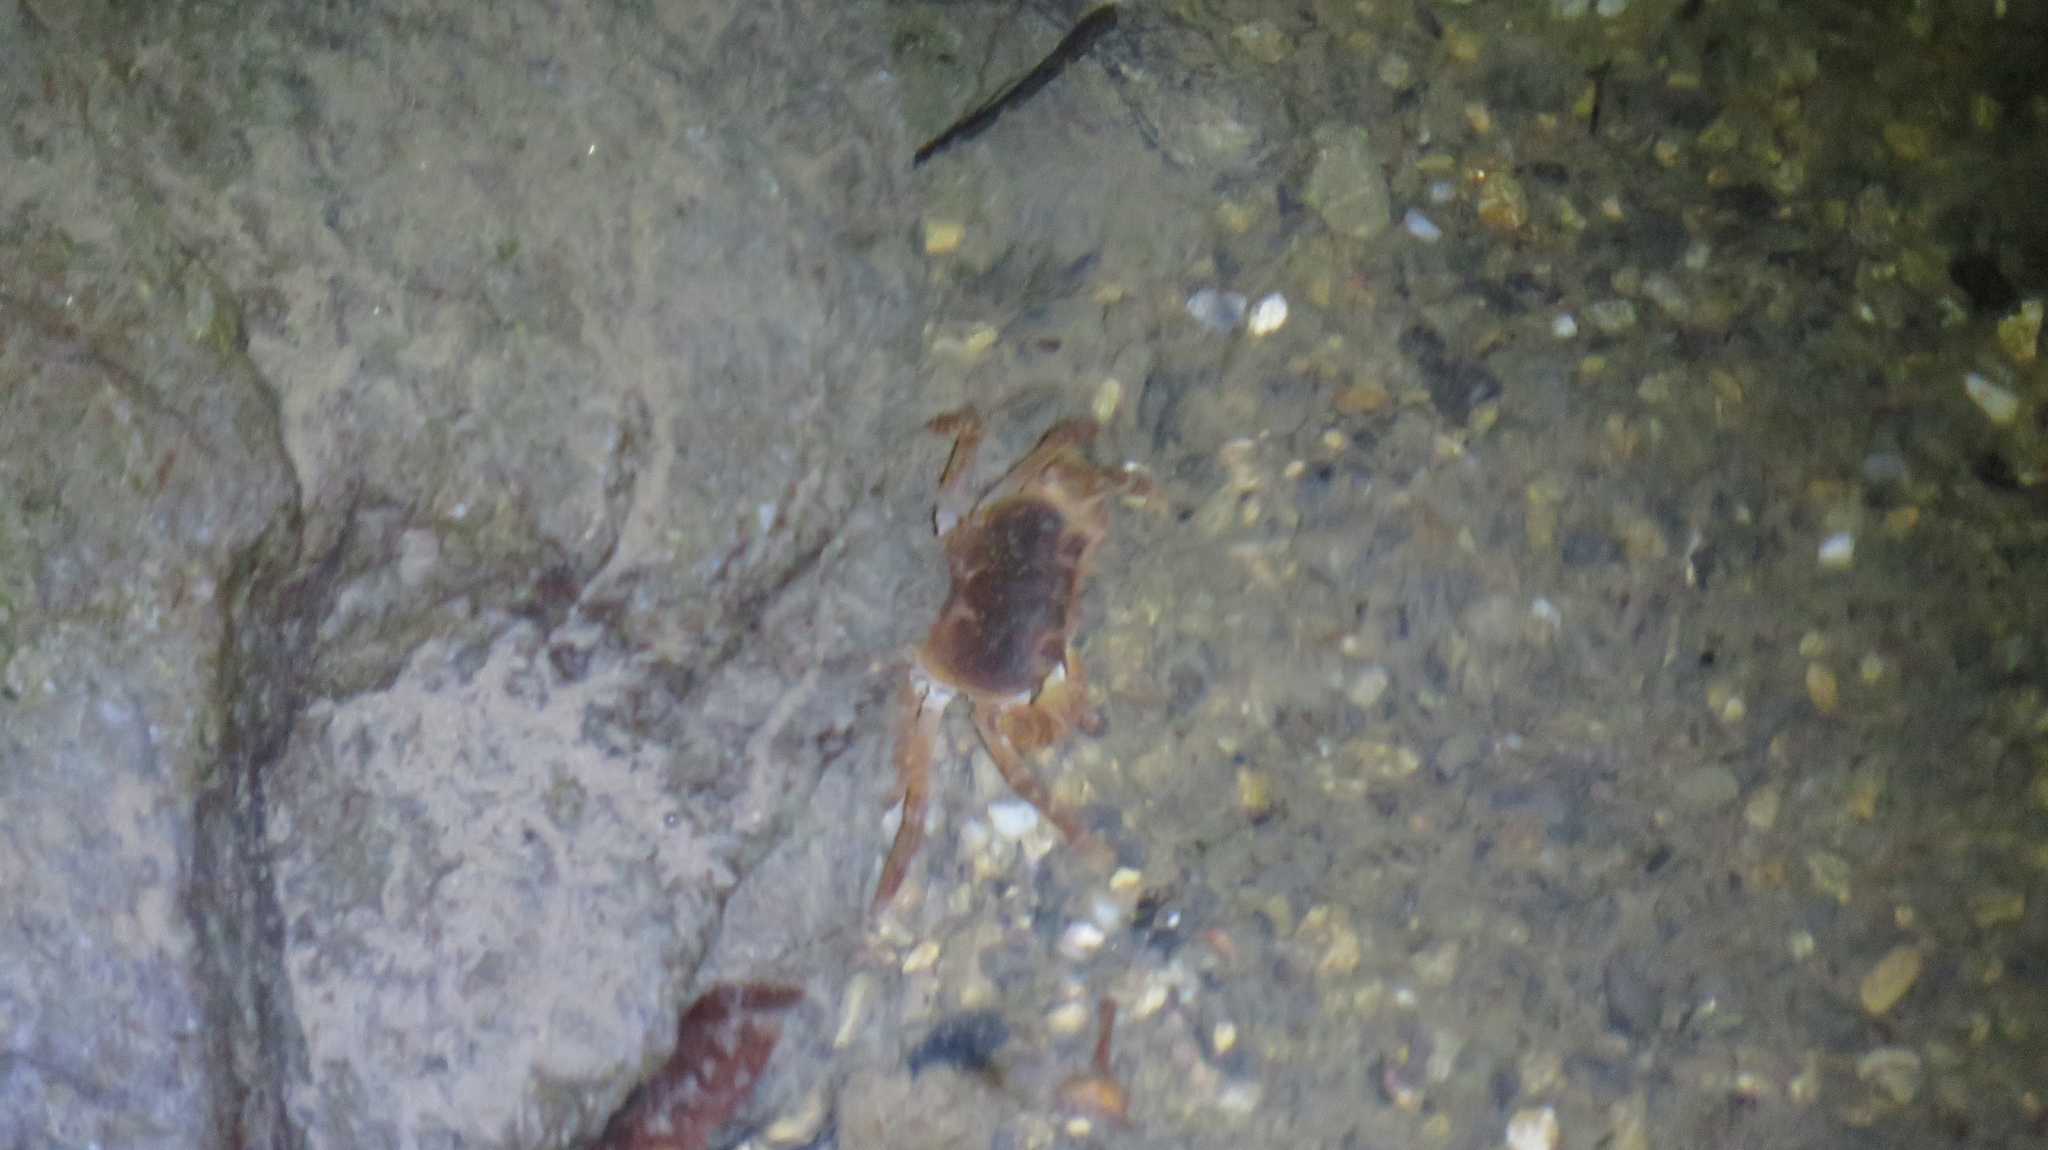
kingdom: Animalia
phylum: Arthropoda
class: Malacostraca
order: Decapoda
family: Potamidae
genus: Geothelphusa
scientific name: Geothelphusa dehaani
